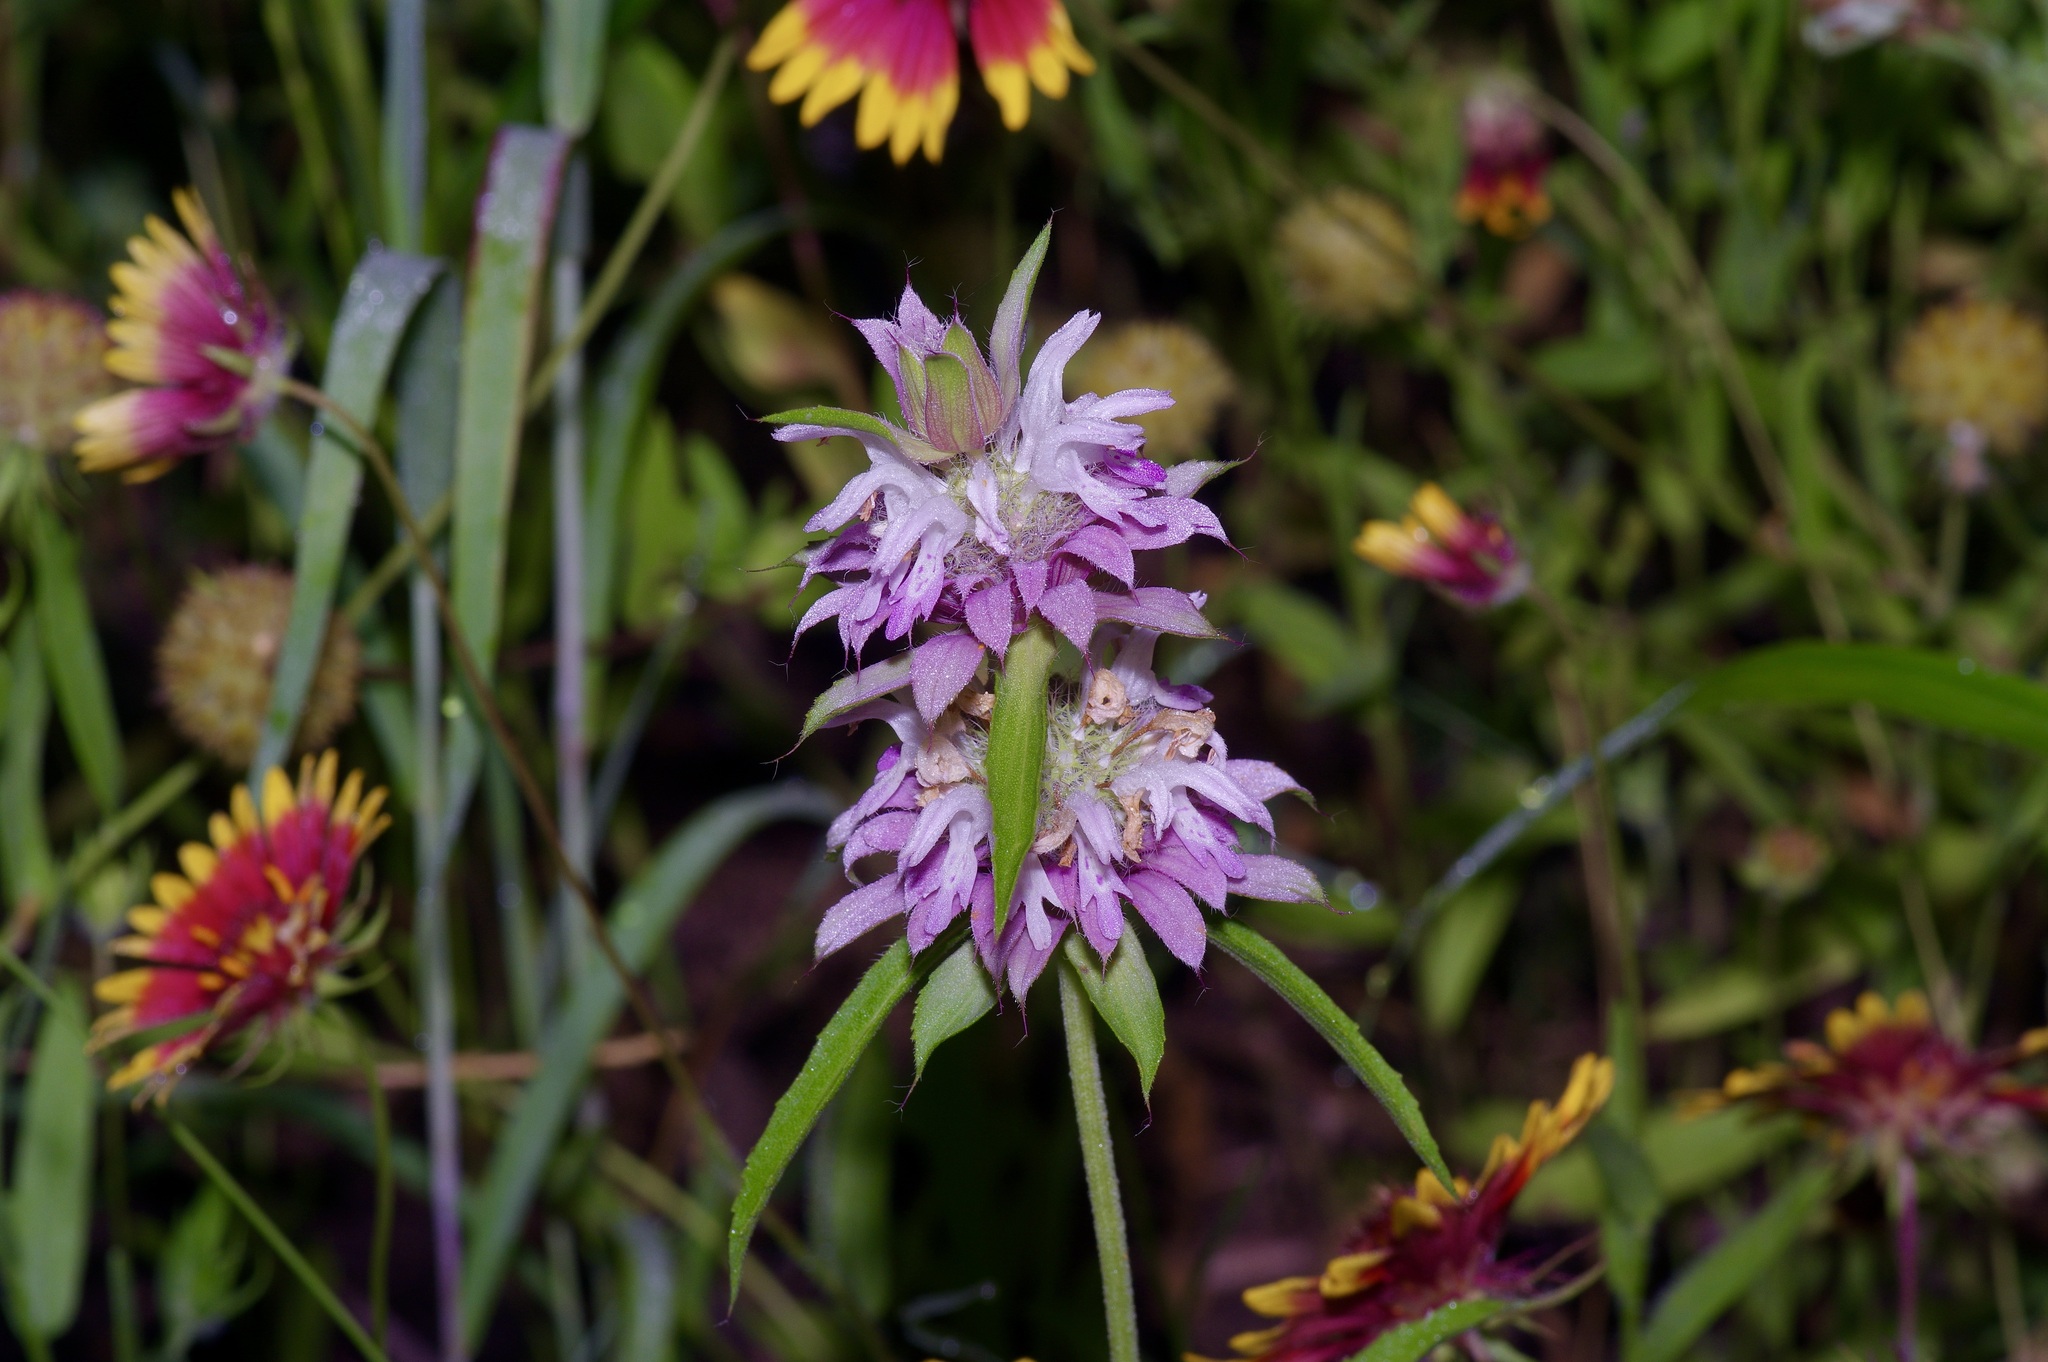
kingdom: Plantae
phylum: Tracheophyta
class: Magnoliopsida
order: Lamiales
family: Lamiaceae
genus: Monarda
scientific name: Monarda citriodora
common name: Lemon beebalm
